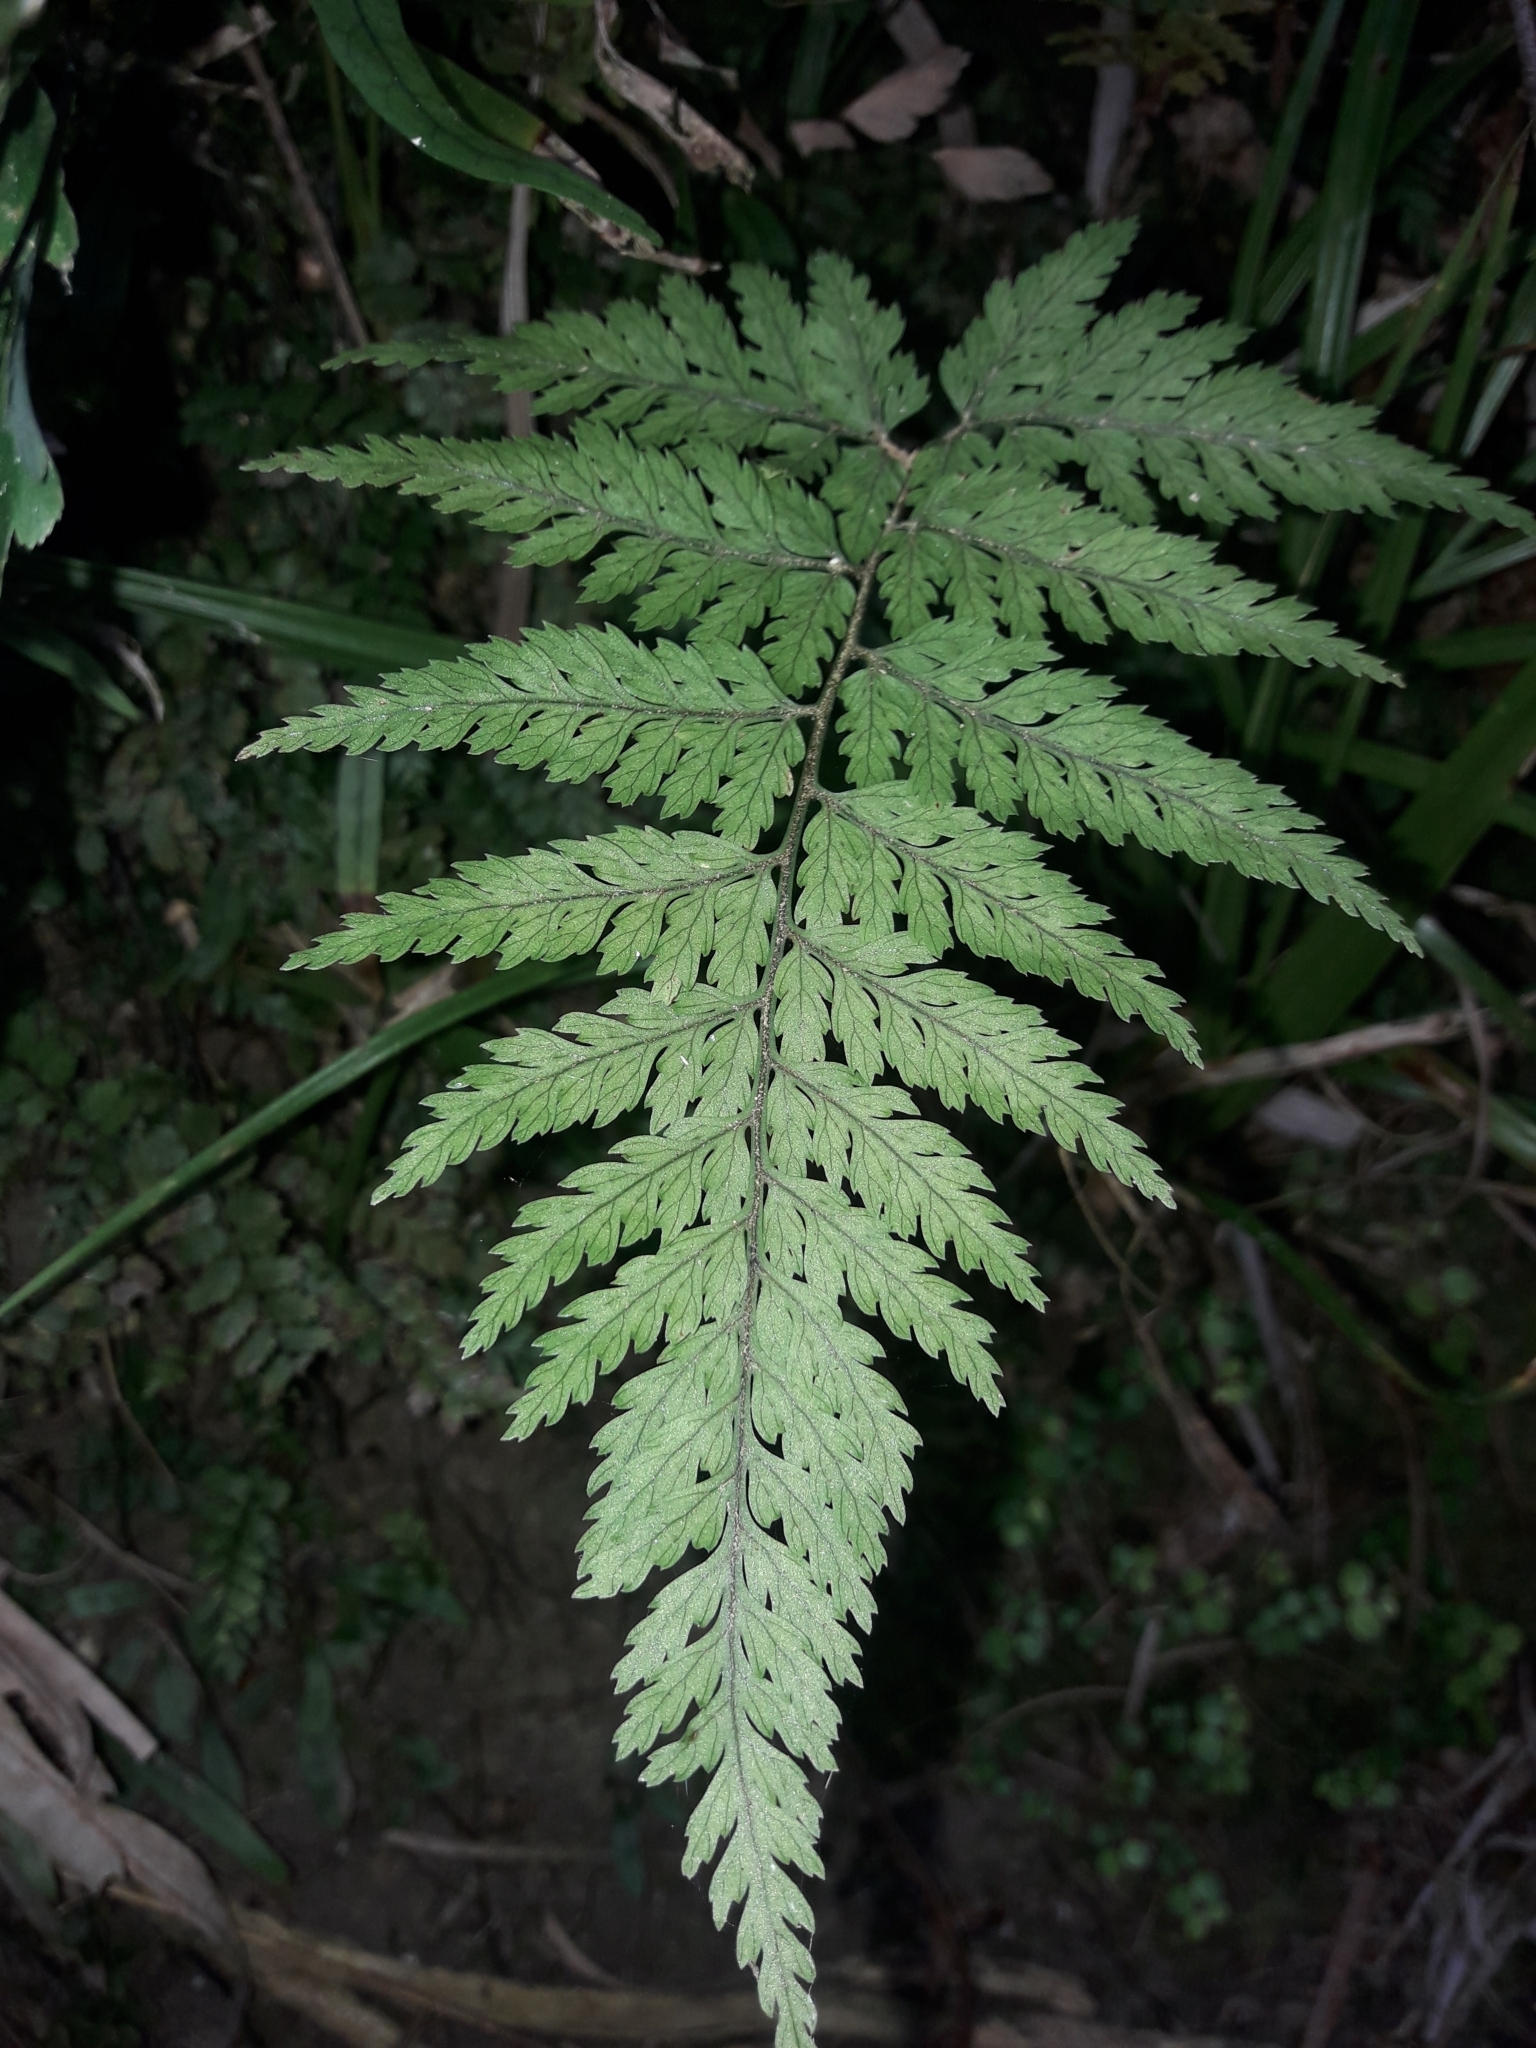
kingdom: Plantae
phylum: Tracheophyta
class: Polypodiopsida
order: Polypodiales
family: Dryopteridaceae
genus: Parapolystichum
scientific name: Parapolystichum glabellum
